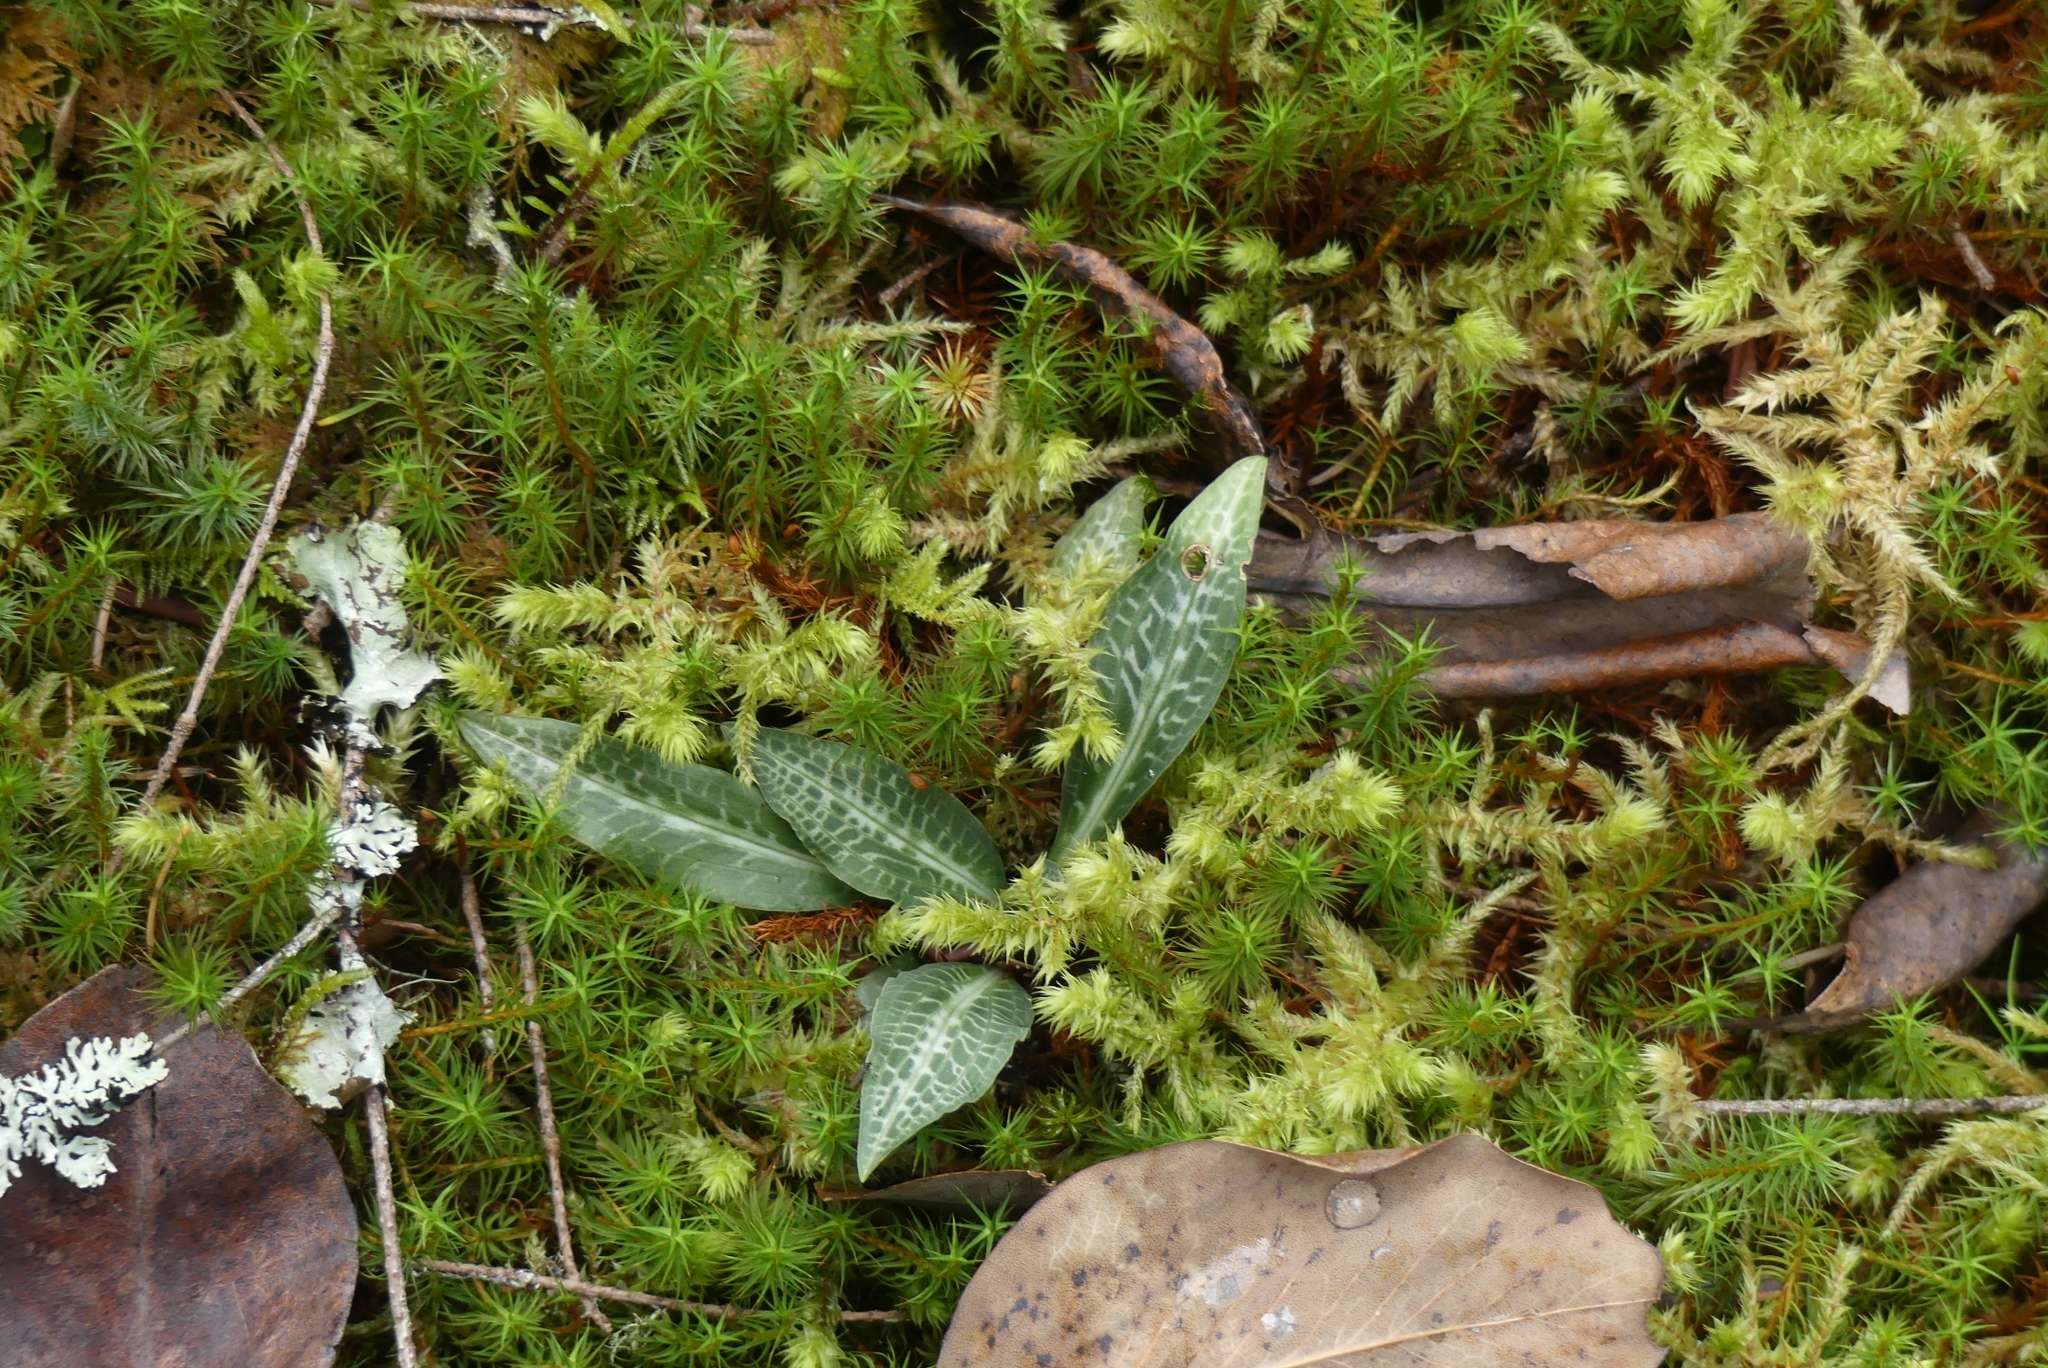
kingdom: Plantae
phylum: Tracheophyta
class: Liliopsida
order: Asparagales
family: Orchidaceae
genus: Goodyera
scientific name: Goodyera oblongifolia
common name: Giant rattlesnake-plantain
